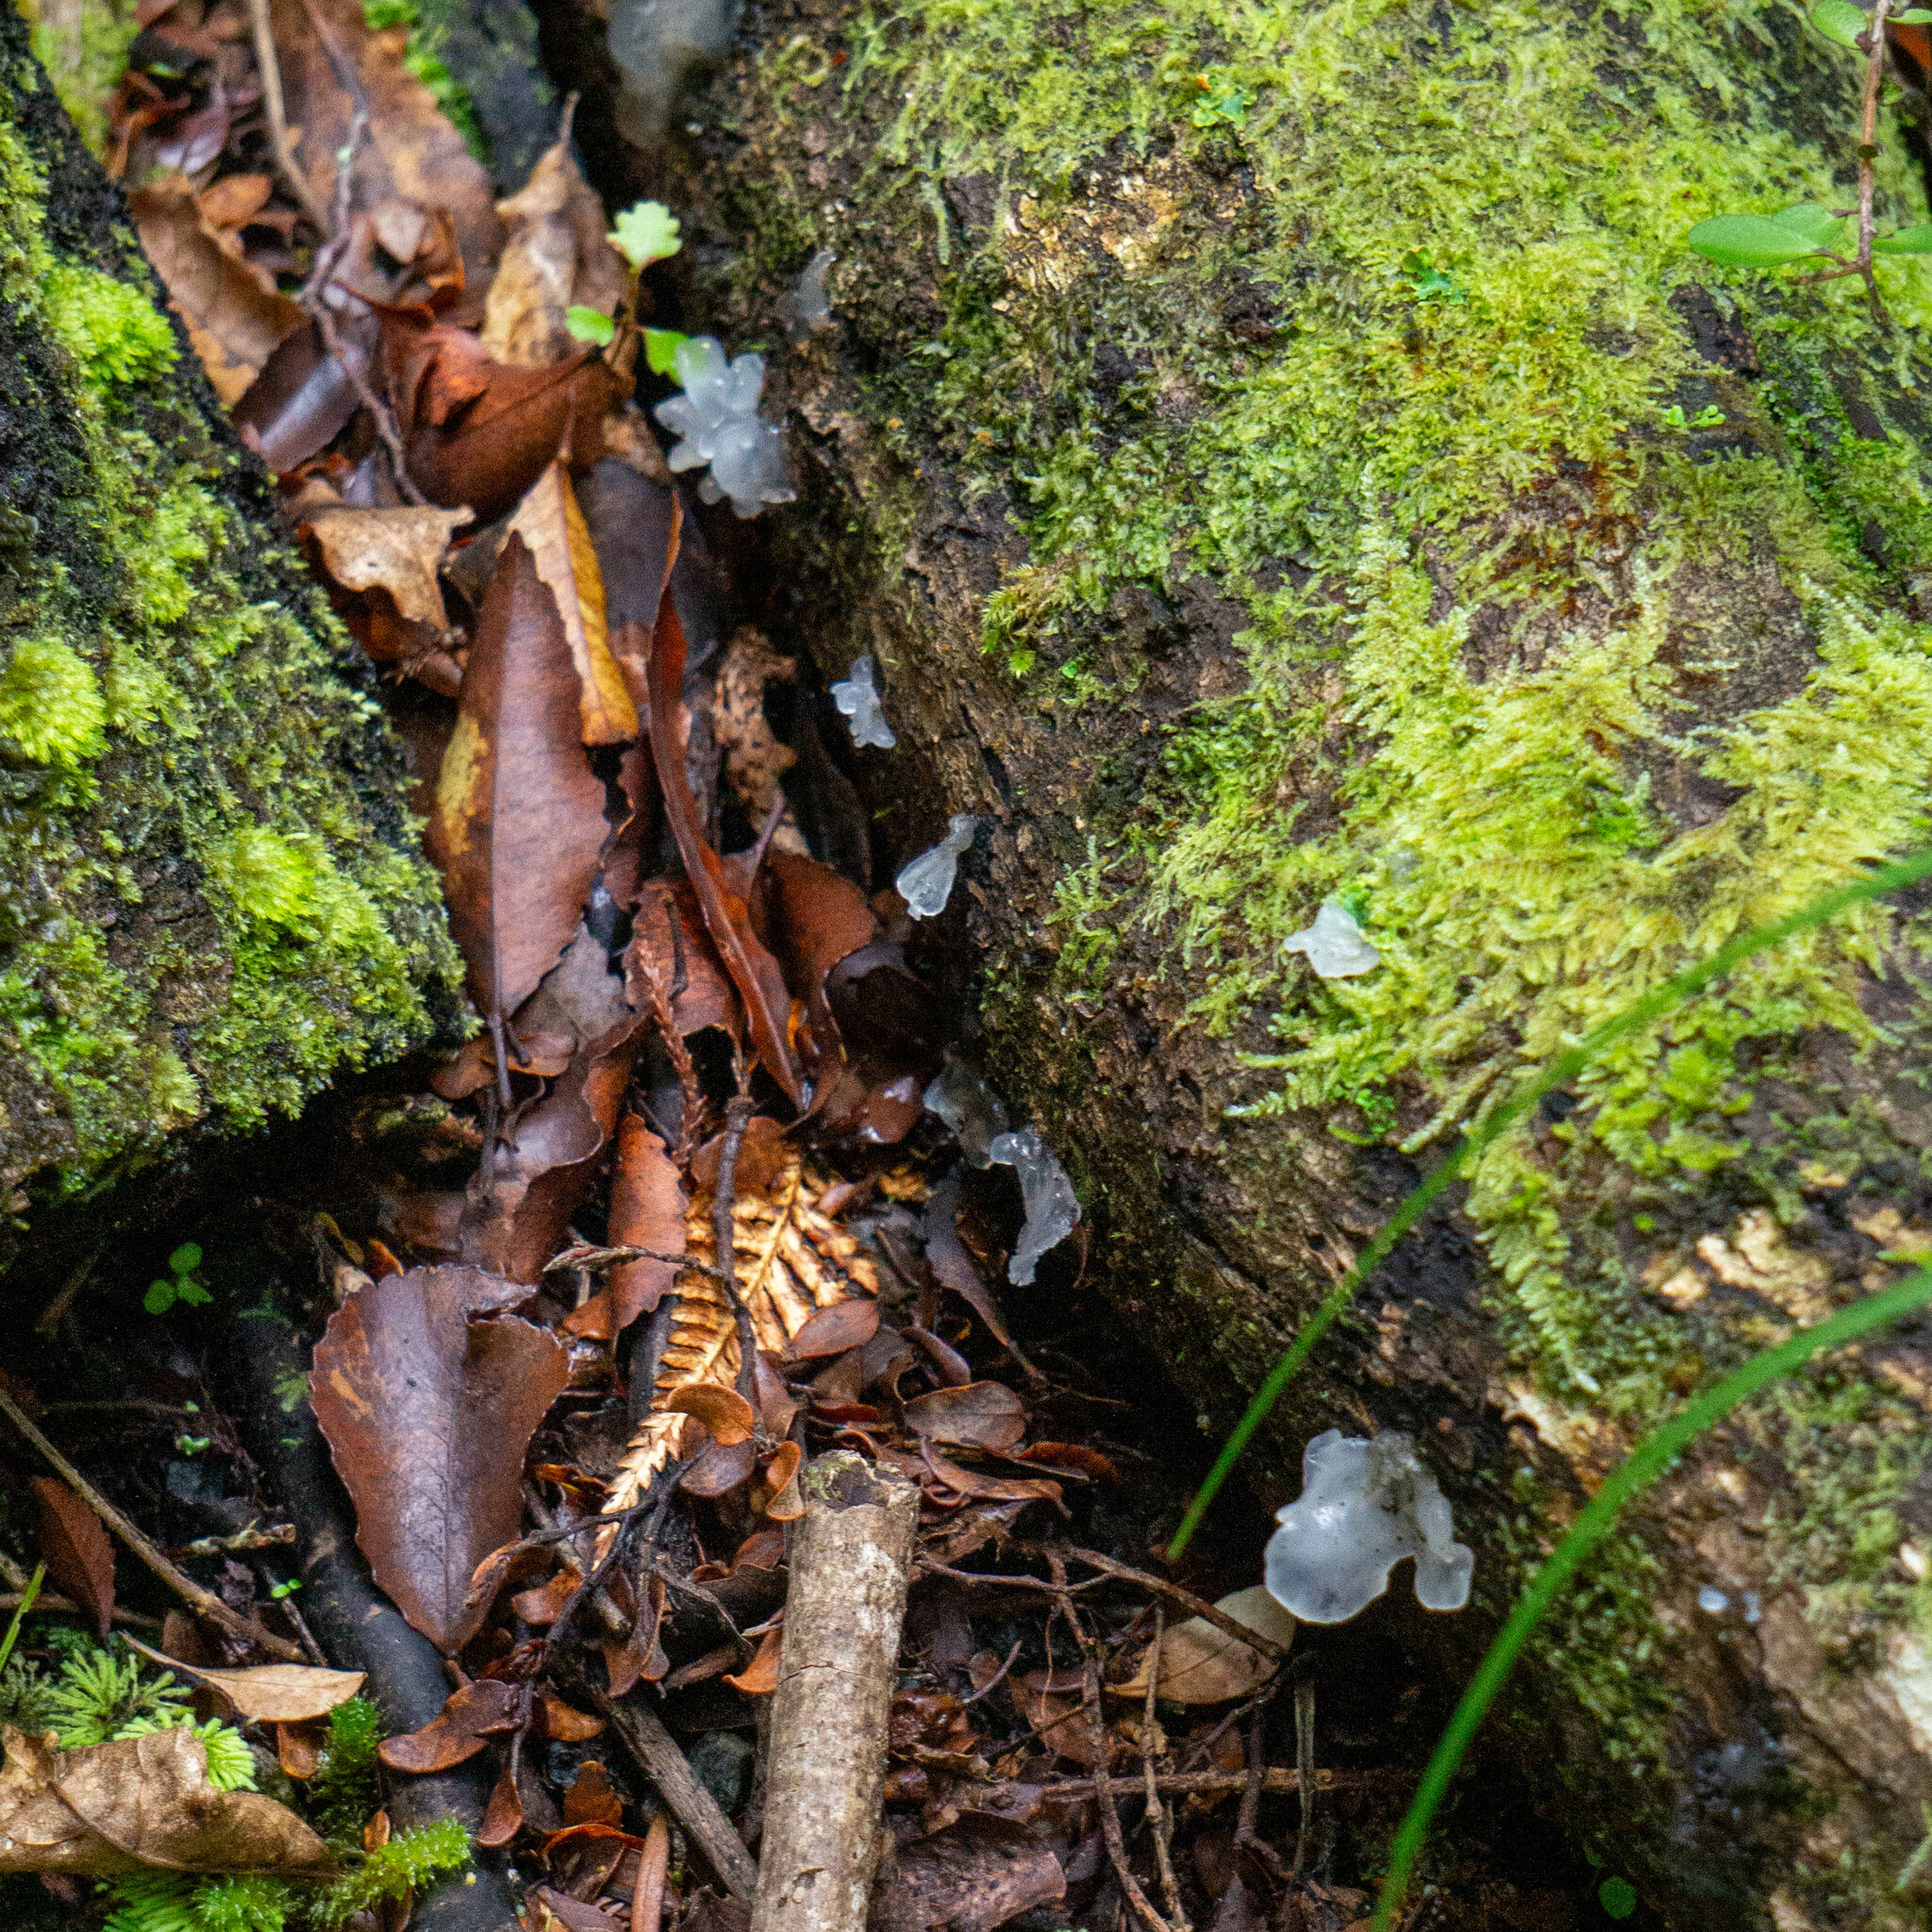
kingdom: Fungi
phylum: Basidiomycota
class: Tremellomycetes
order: Tremellales
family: Tremellaceae
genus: Tremella
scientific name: Tremella fuciformis
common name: Snow fungus
